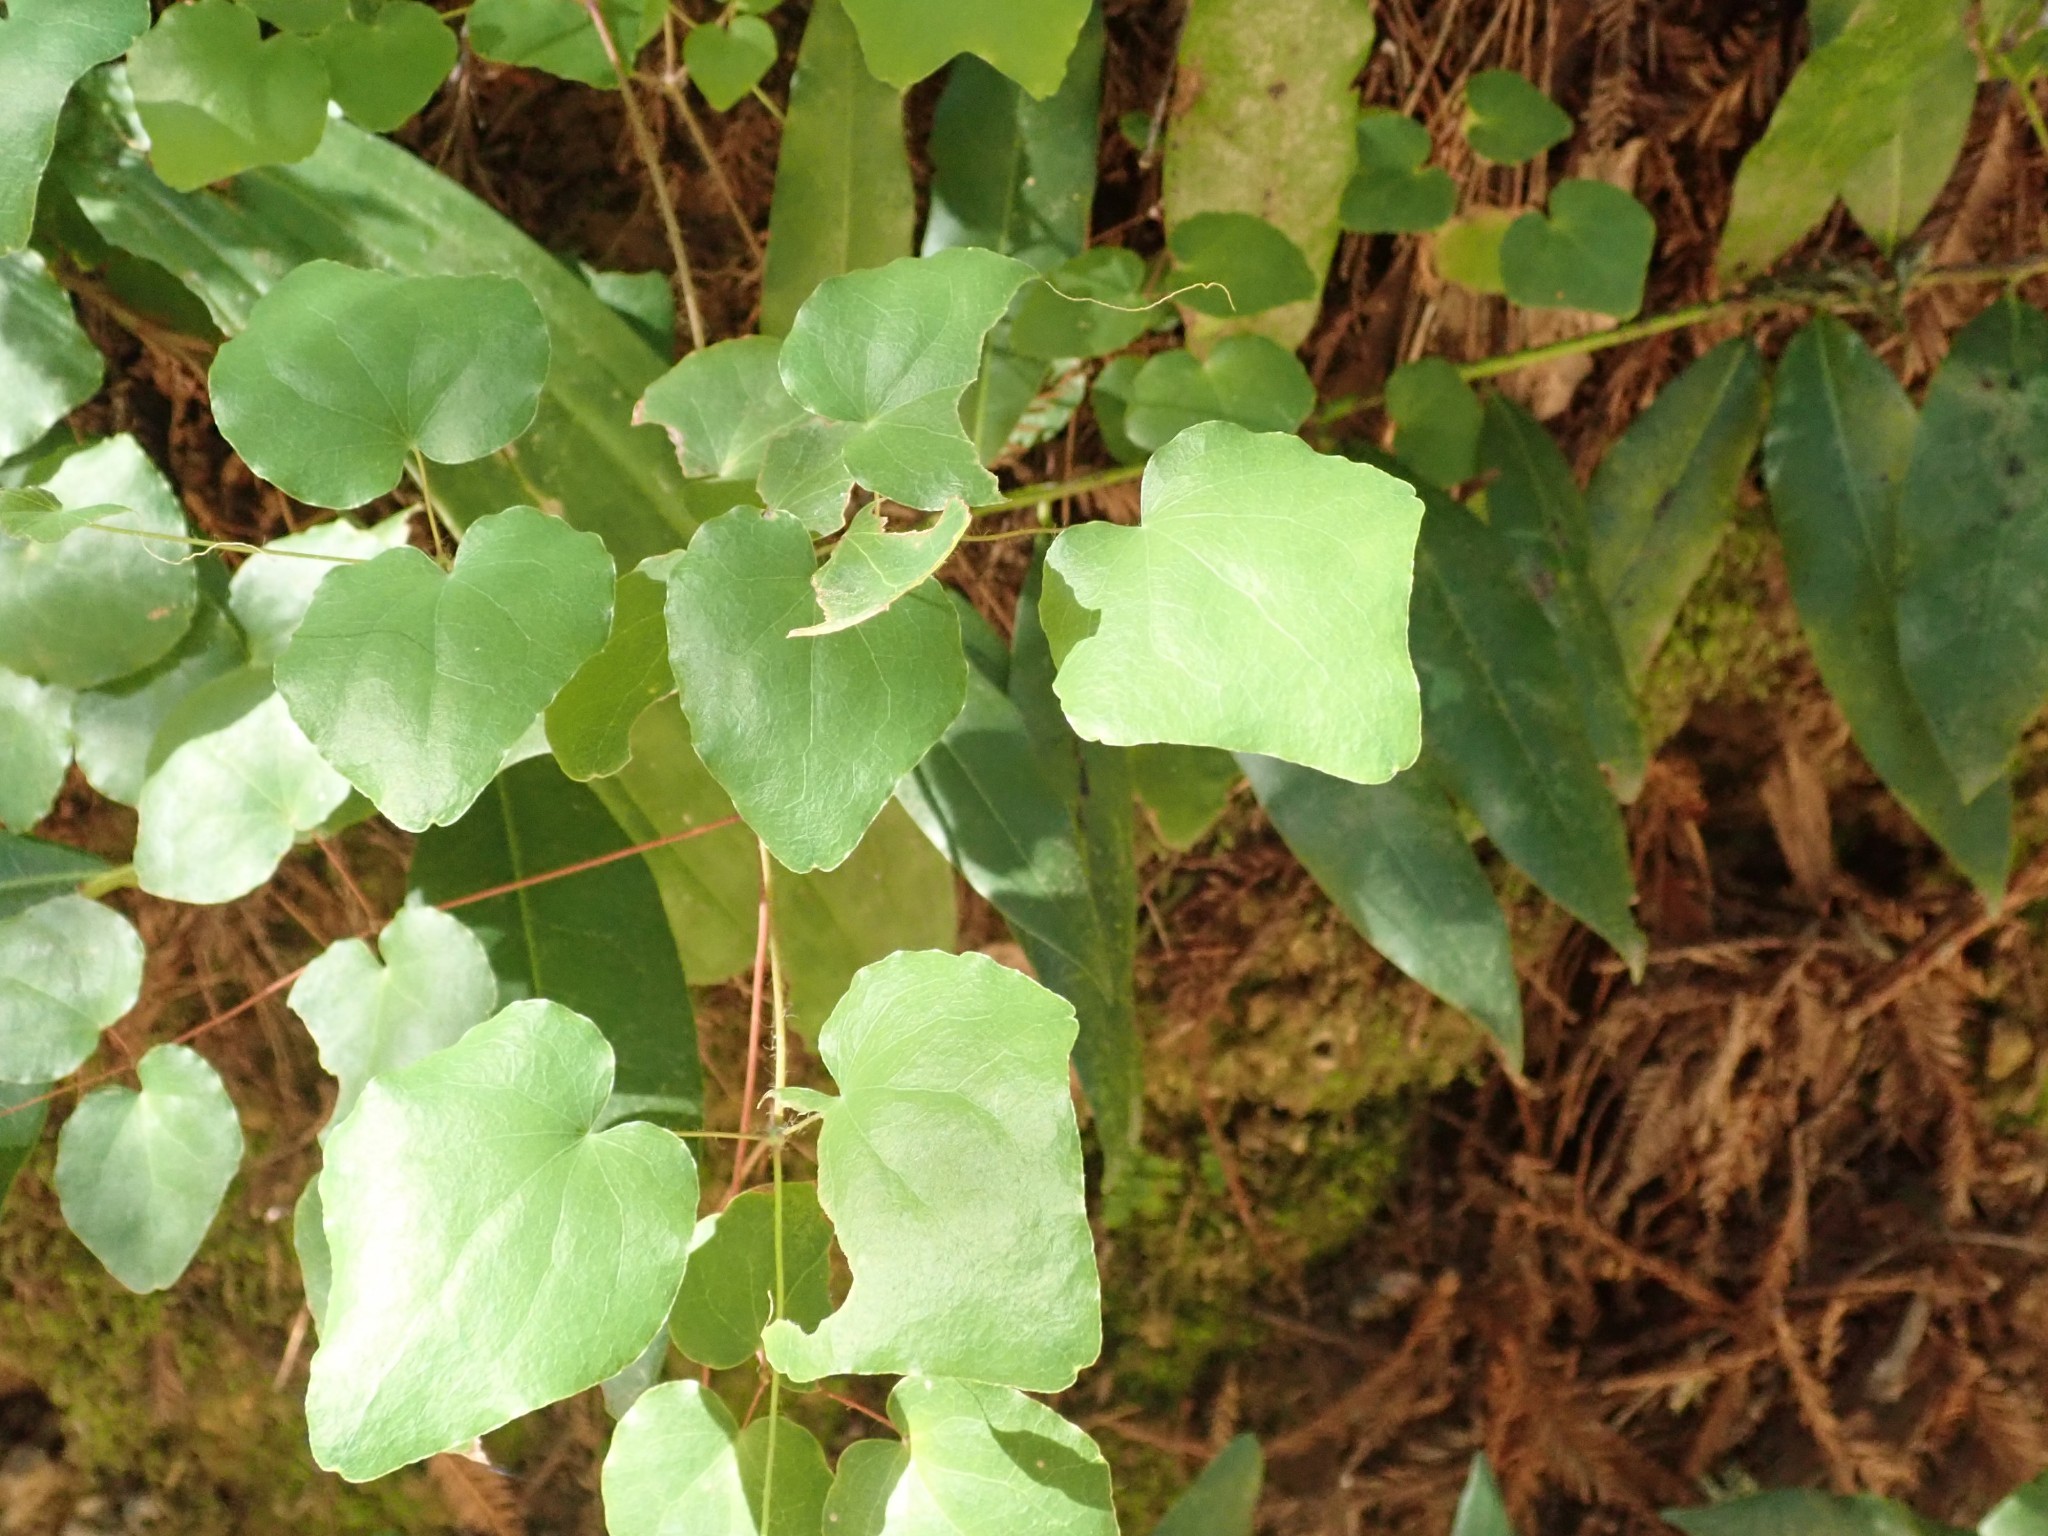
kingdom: Plantae
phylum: Tracheophyta
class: Magnoliopsida
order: Ranunculales
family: Berberidaceae
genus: Vancouveria
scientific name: Vancouveria planipetala
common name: Redwood-ivy
